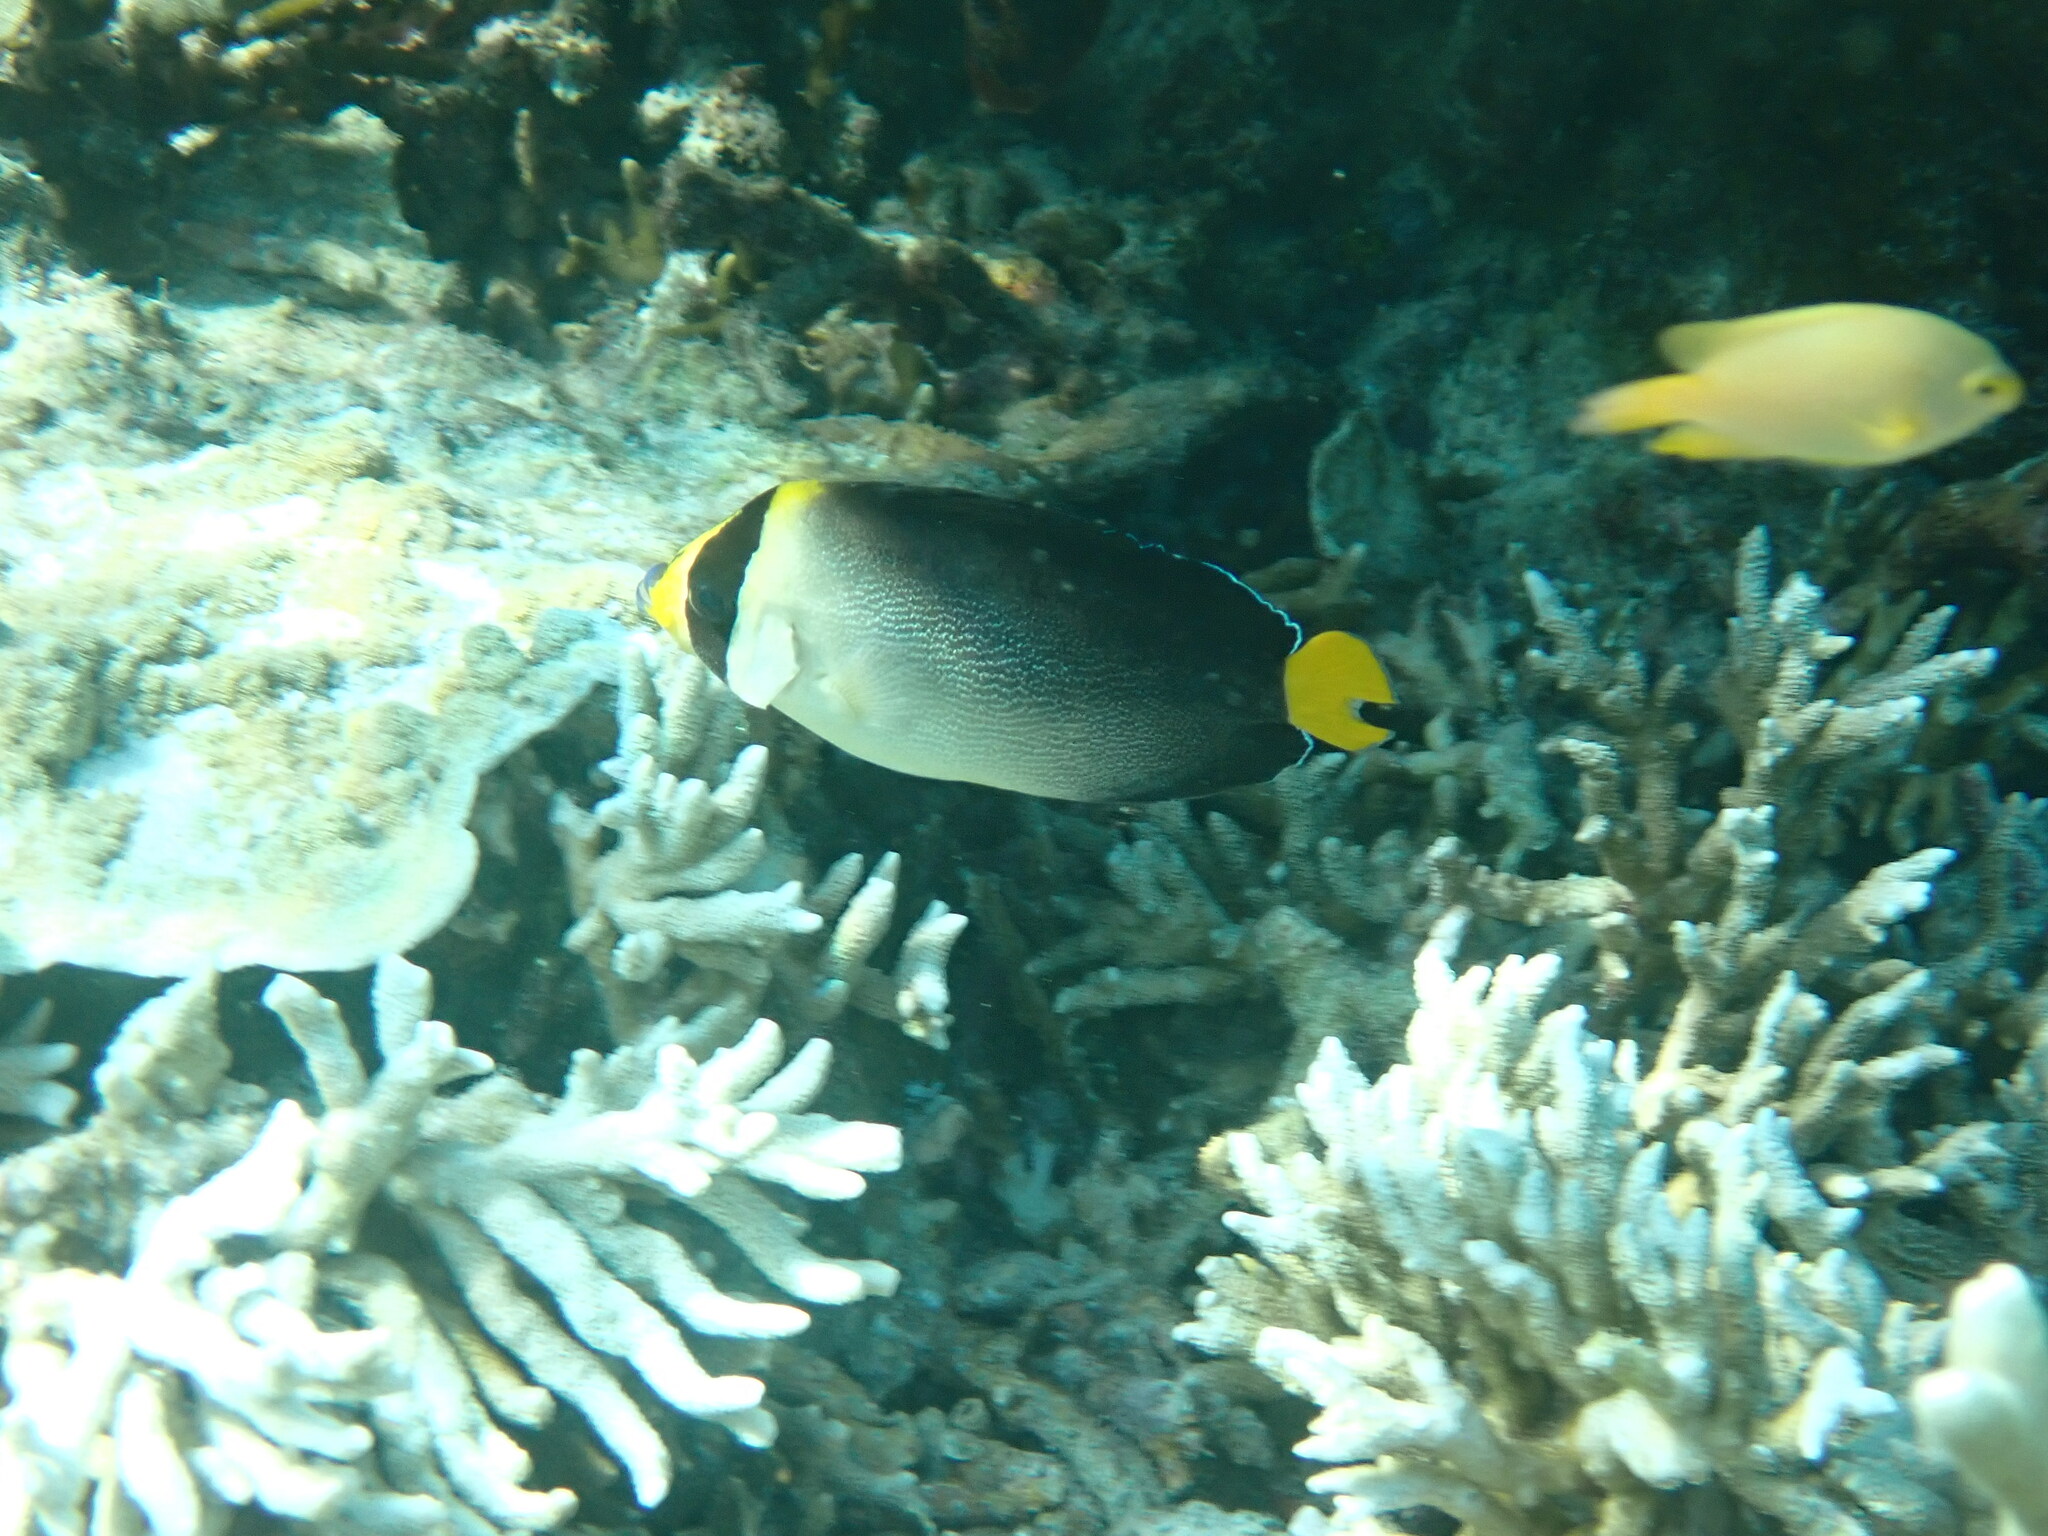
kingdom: Animalia
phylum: Chordata
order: Perciformes
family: Pomacanthidae
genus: Chaetodontoplus
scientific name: Chaetodontoplus mesoleucus
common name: Vermiculated angelfish
